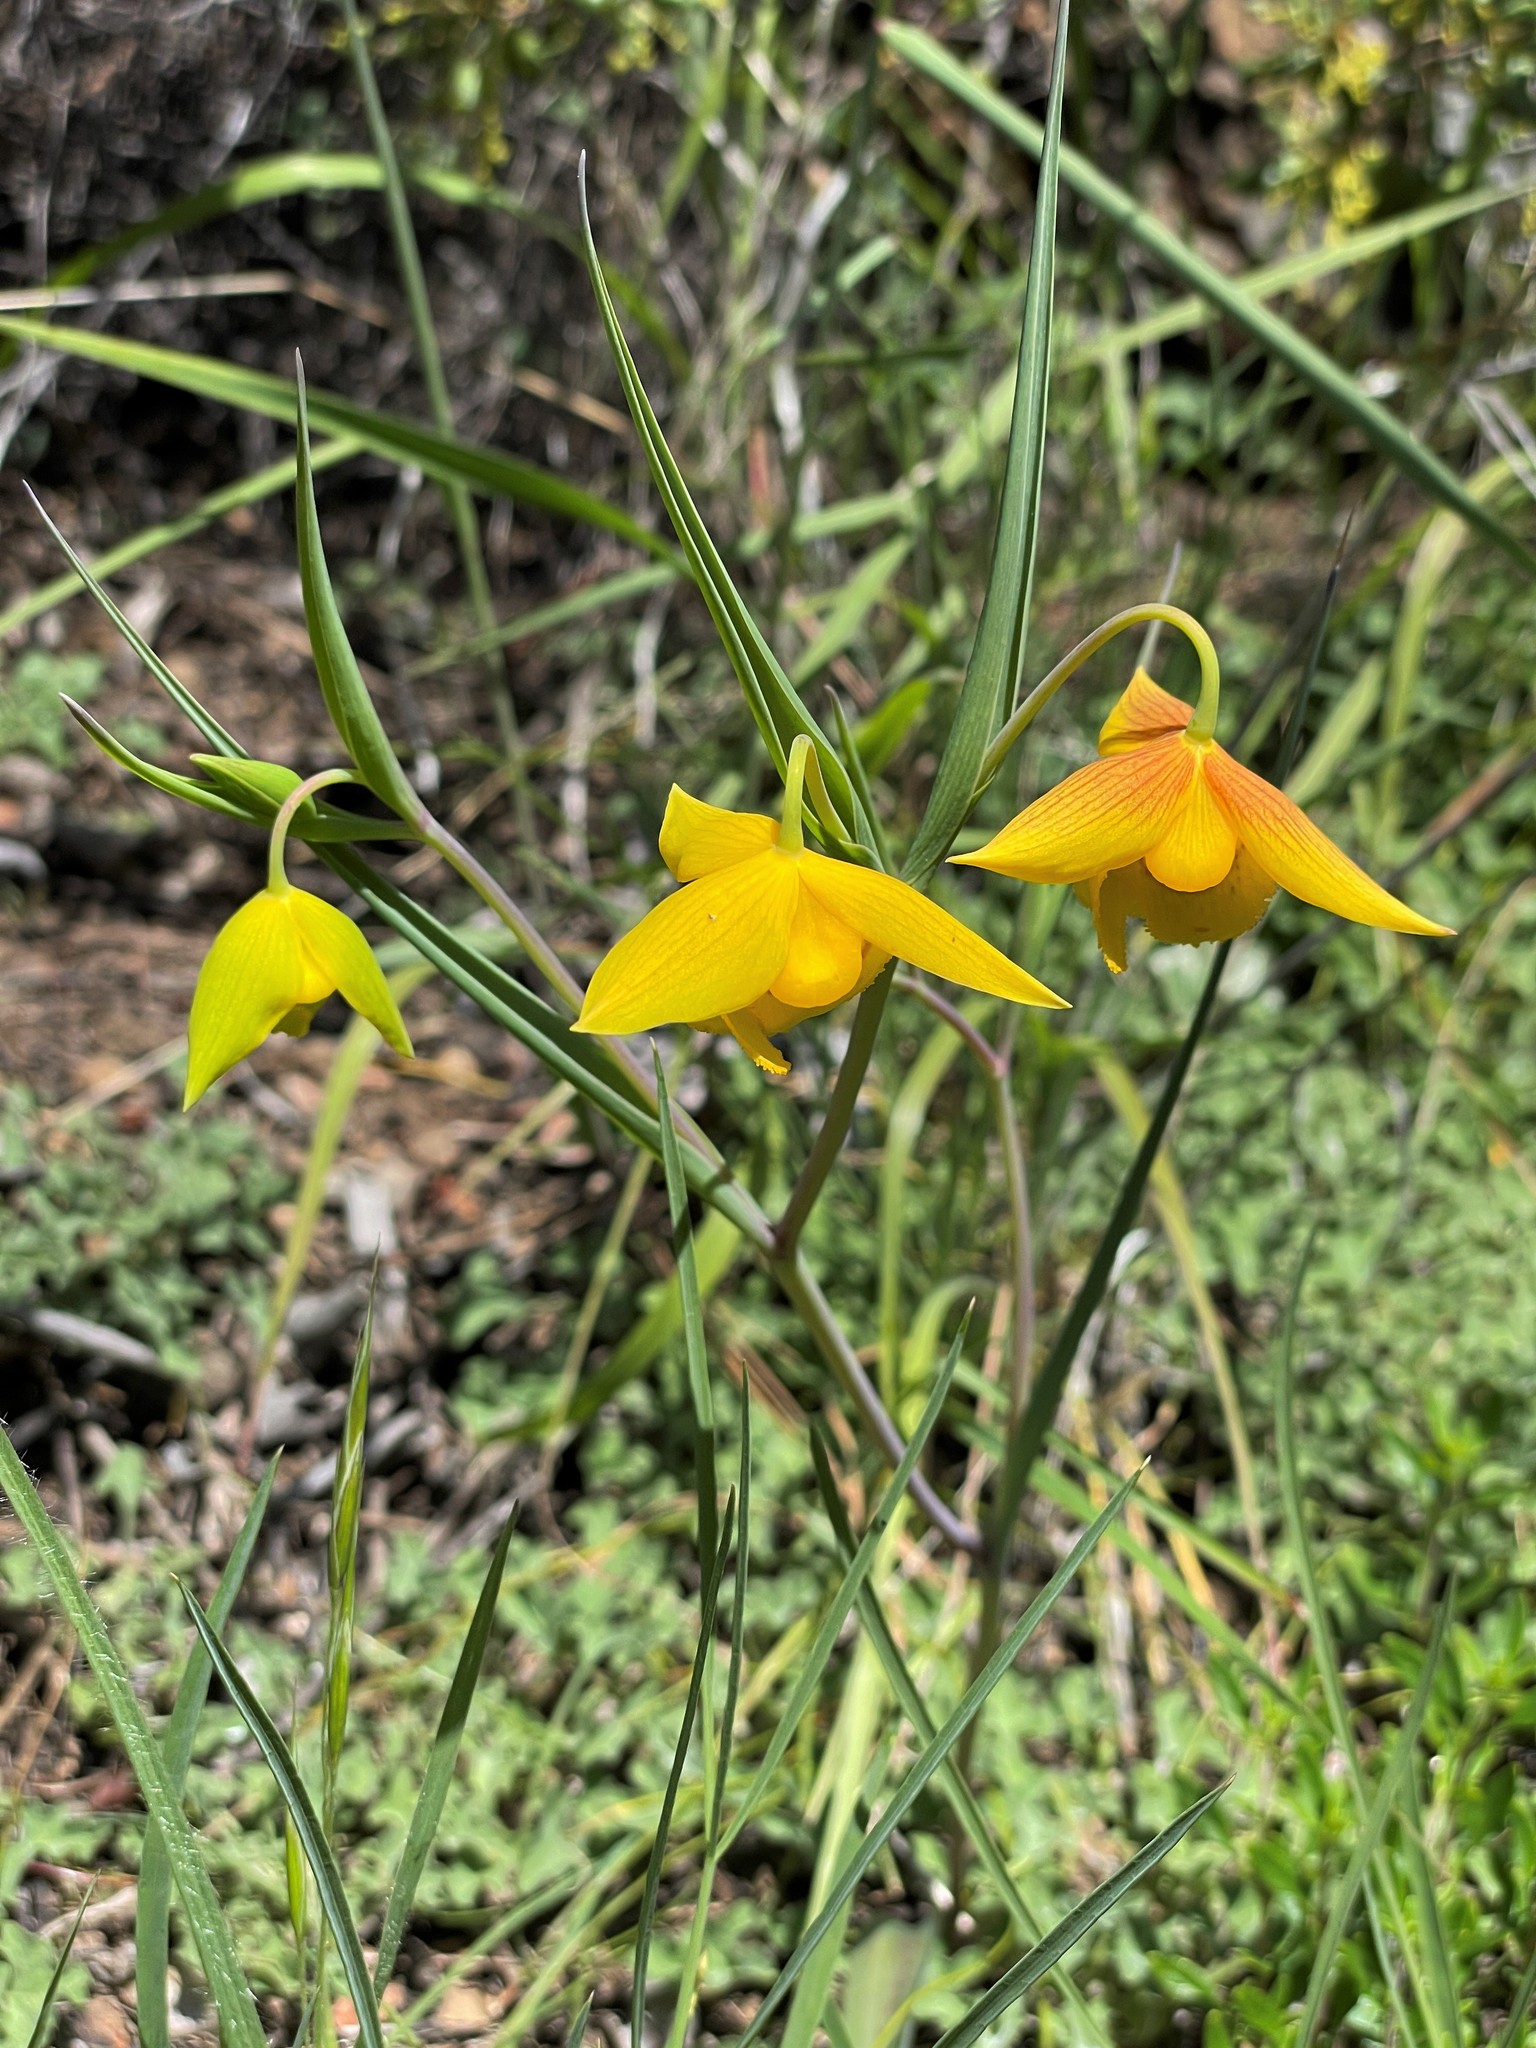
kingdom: Plantae
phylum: Tracheophyta
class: Liliopsida
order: Liliales
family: Liliaceae
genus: Calochortus
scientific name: Calochortus amabilis
